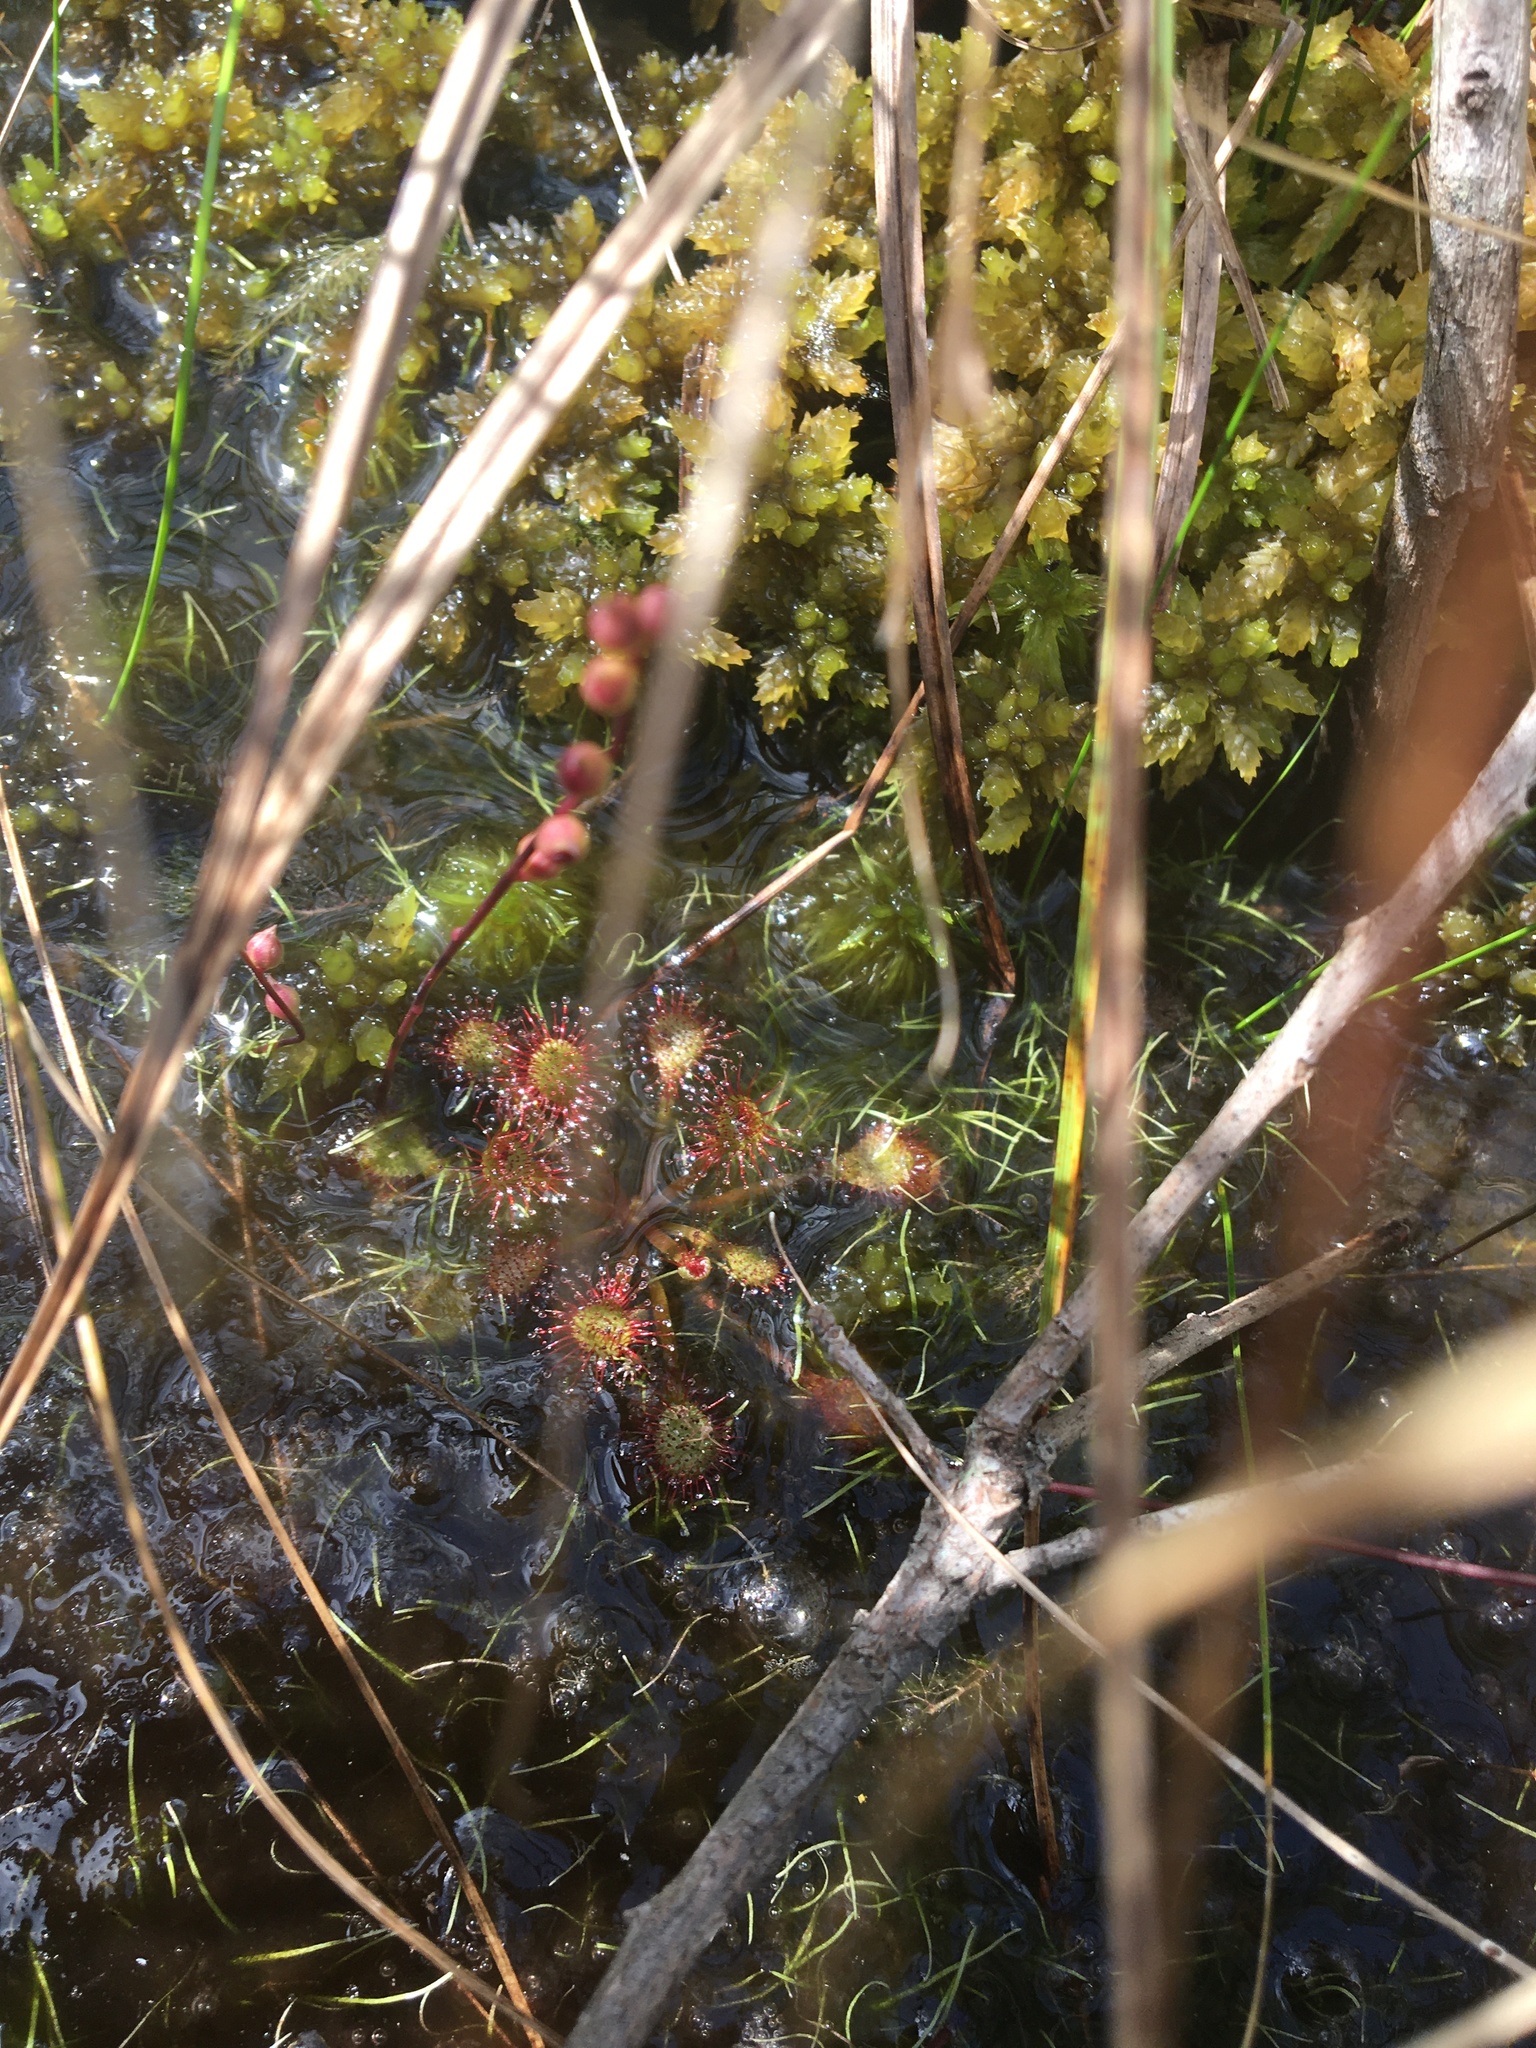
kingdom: Plantae
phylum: Tracheophyta
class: Magnoliopsida
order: Caryophyllales
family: Droseraceae
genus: Drosera
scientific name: Drosera capillaris
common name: Pink sundew
